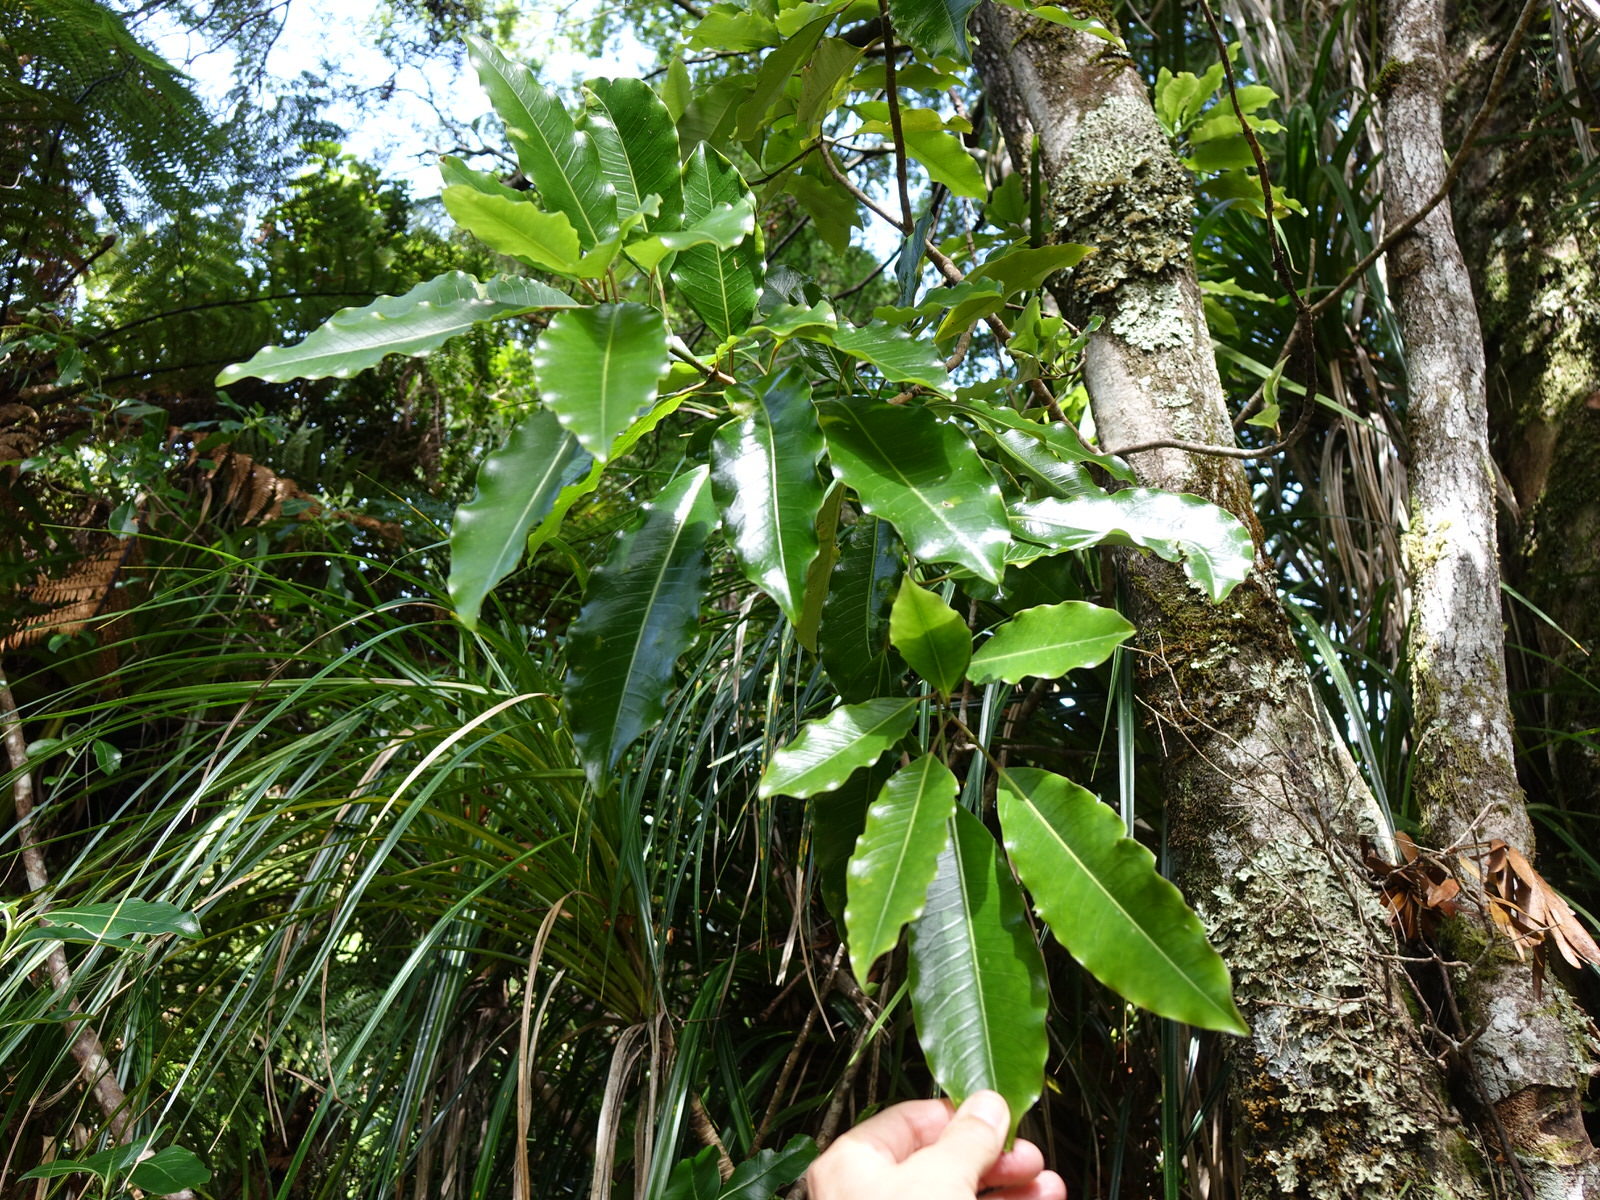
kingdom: Plantae
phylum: Tracheophyta
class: Magnoliopsida
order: Apiales
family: Araliaceae
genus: Raukaua
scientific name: Raukaua edgerleyi
